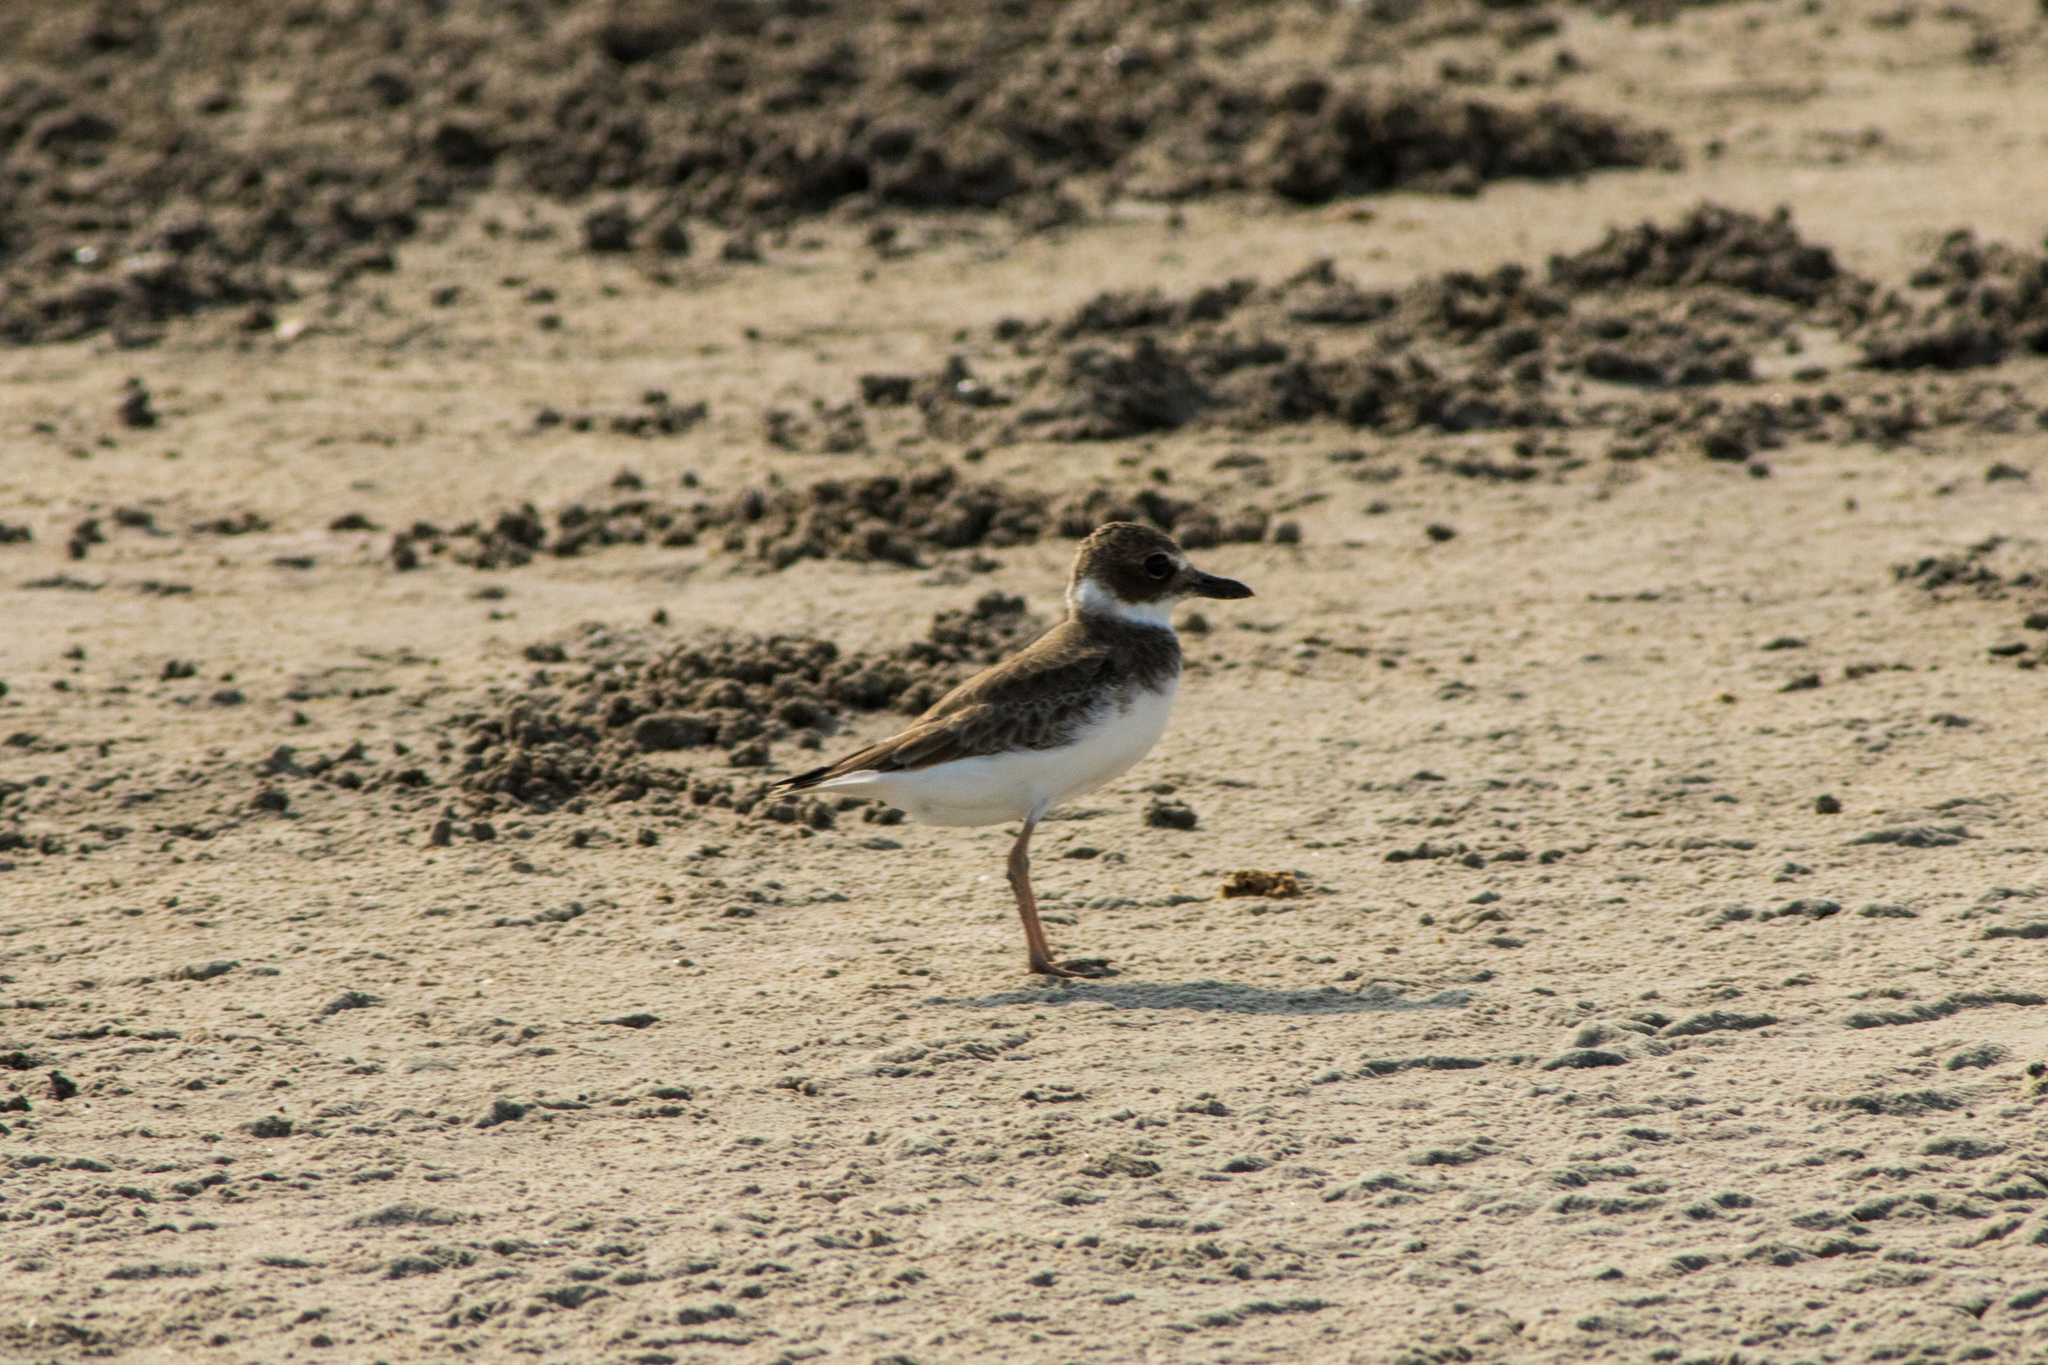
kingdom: Animalia
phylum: Chordata
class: Aves
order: Charadriiformes
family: Charadriidae
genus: Anarhynchus
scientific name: Anarhynchus
